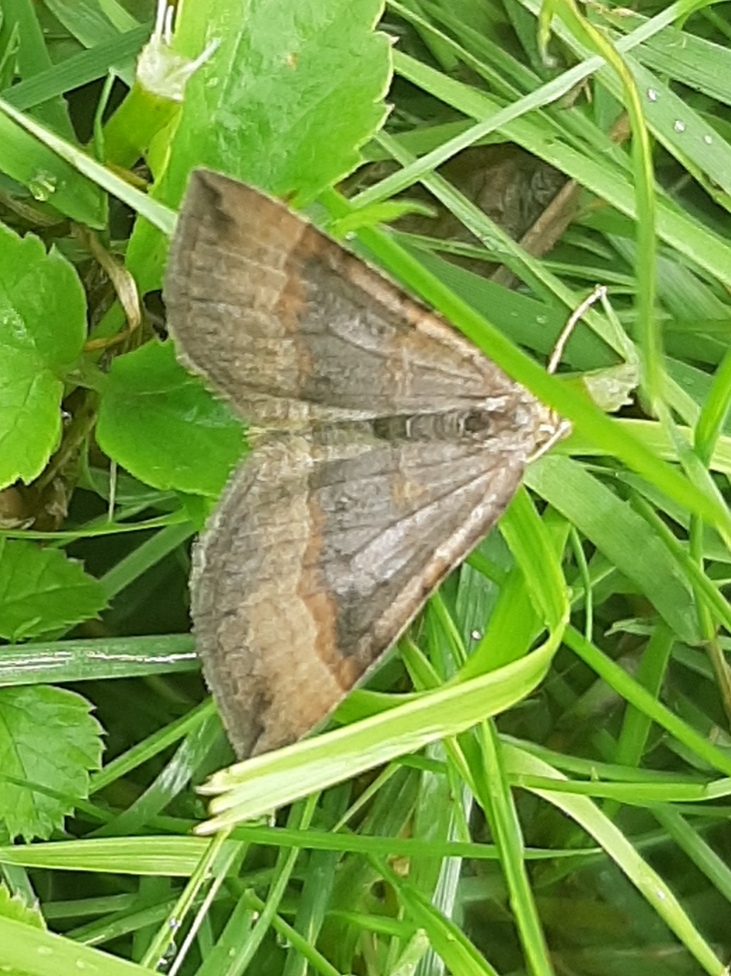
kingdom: Animalia
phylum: Arthropoda
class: Insecta
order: Lepidoptera
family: Geometridae
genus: Scotopteryx
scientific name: Scotopteryx chenopodiata
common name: Shaded broad-bar
